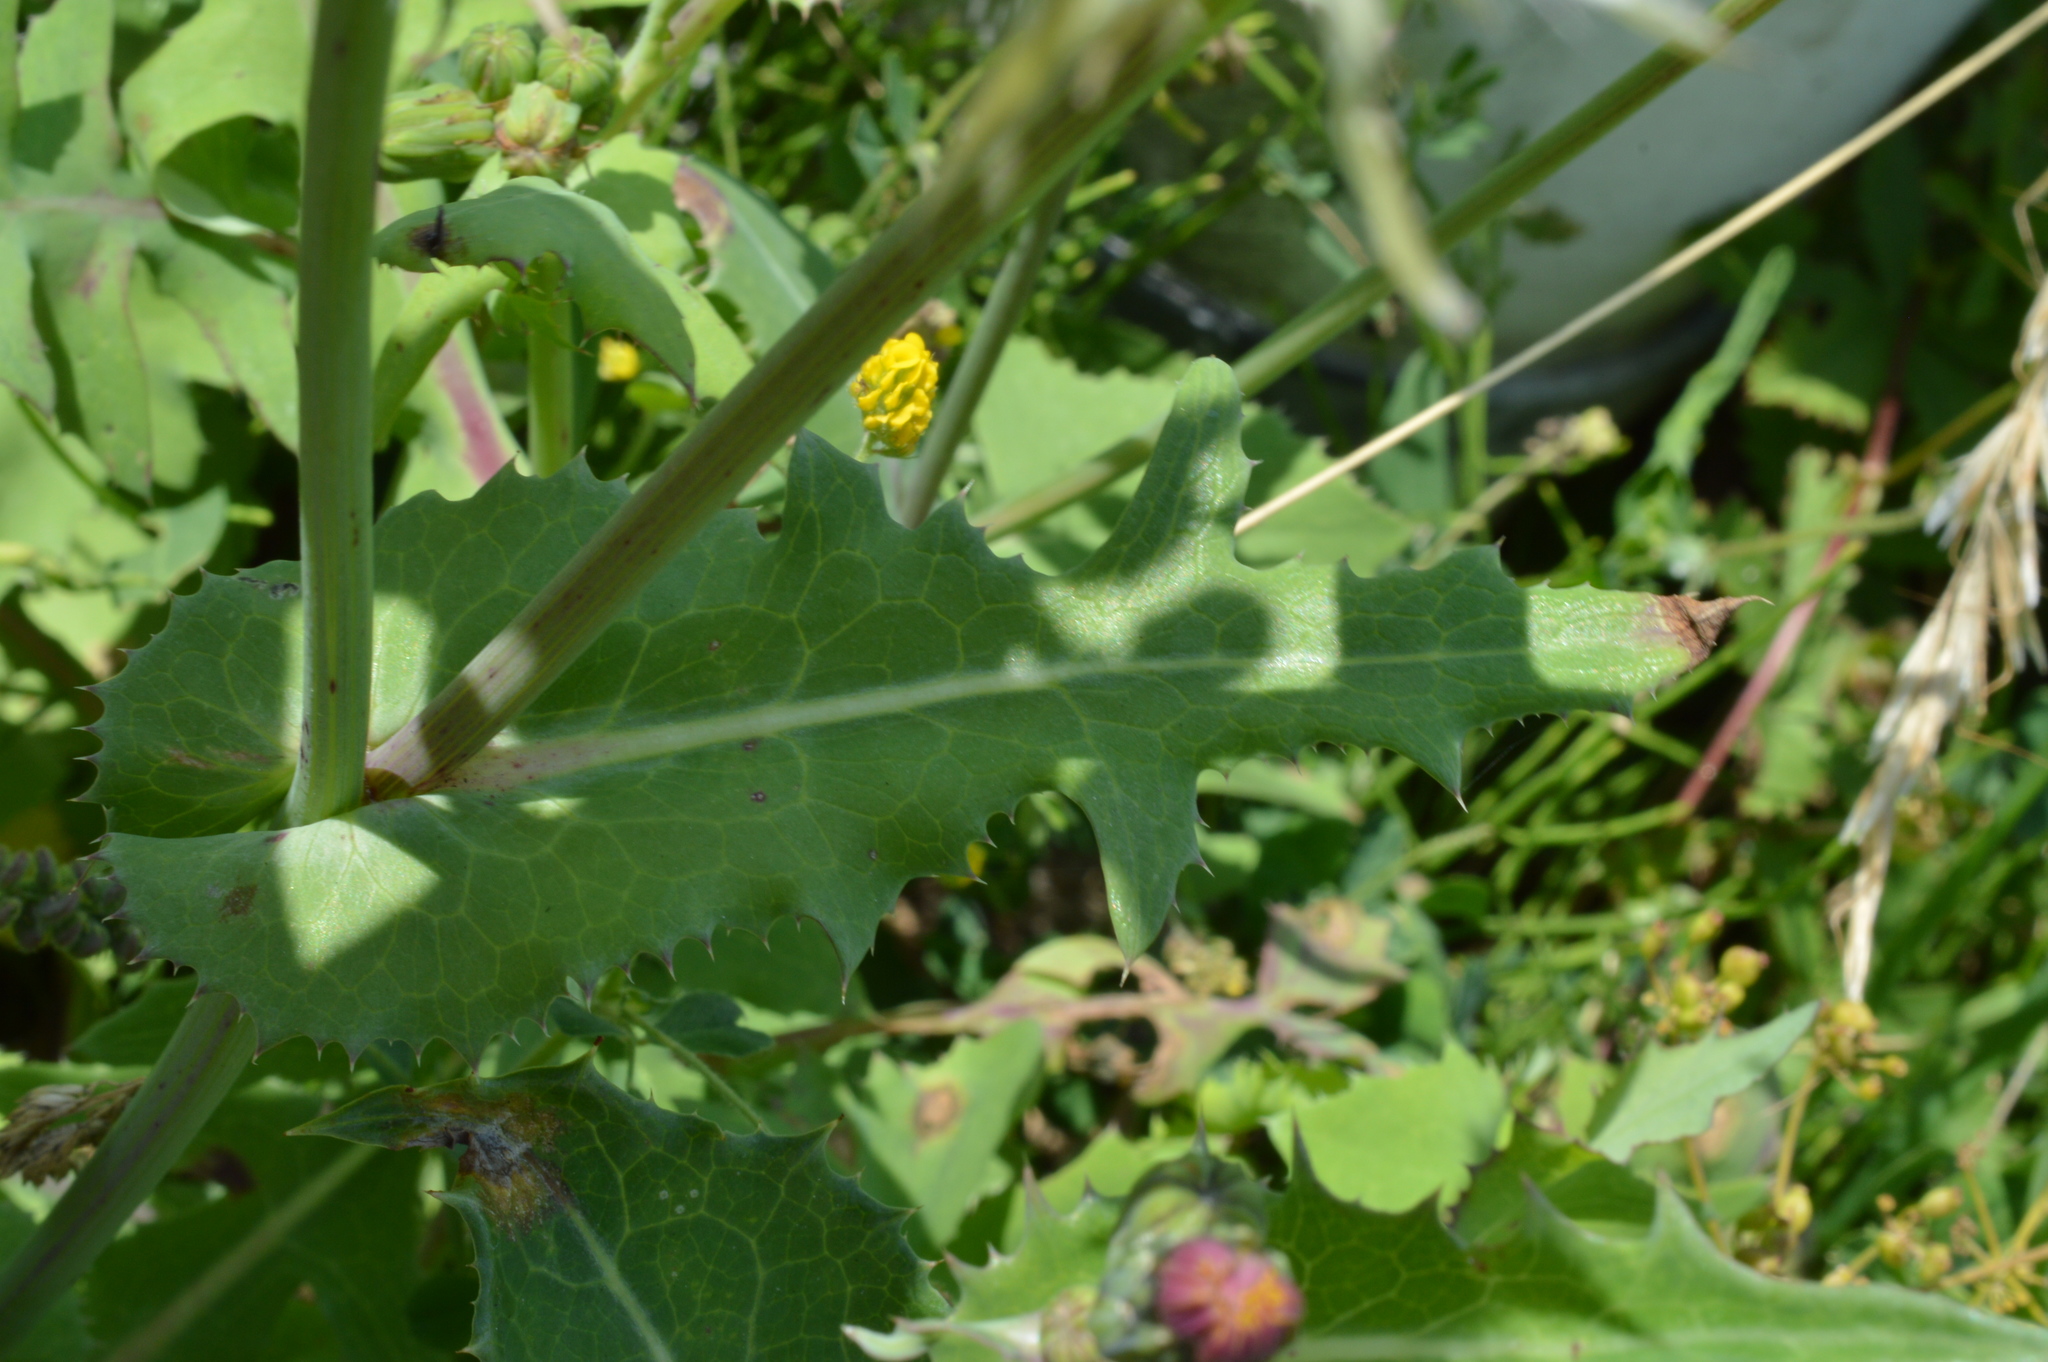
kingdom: Plantae
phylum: Tracheophyta
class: Magnoliopsida
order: Asterales
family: Asteraceae
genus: Sonchus
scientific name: Sonchus oleraceus
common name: Common sowthistle
